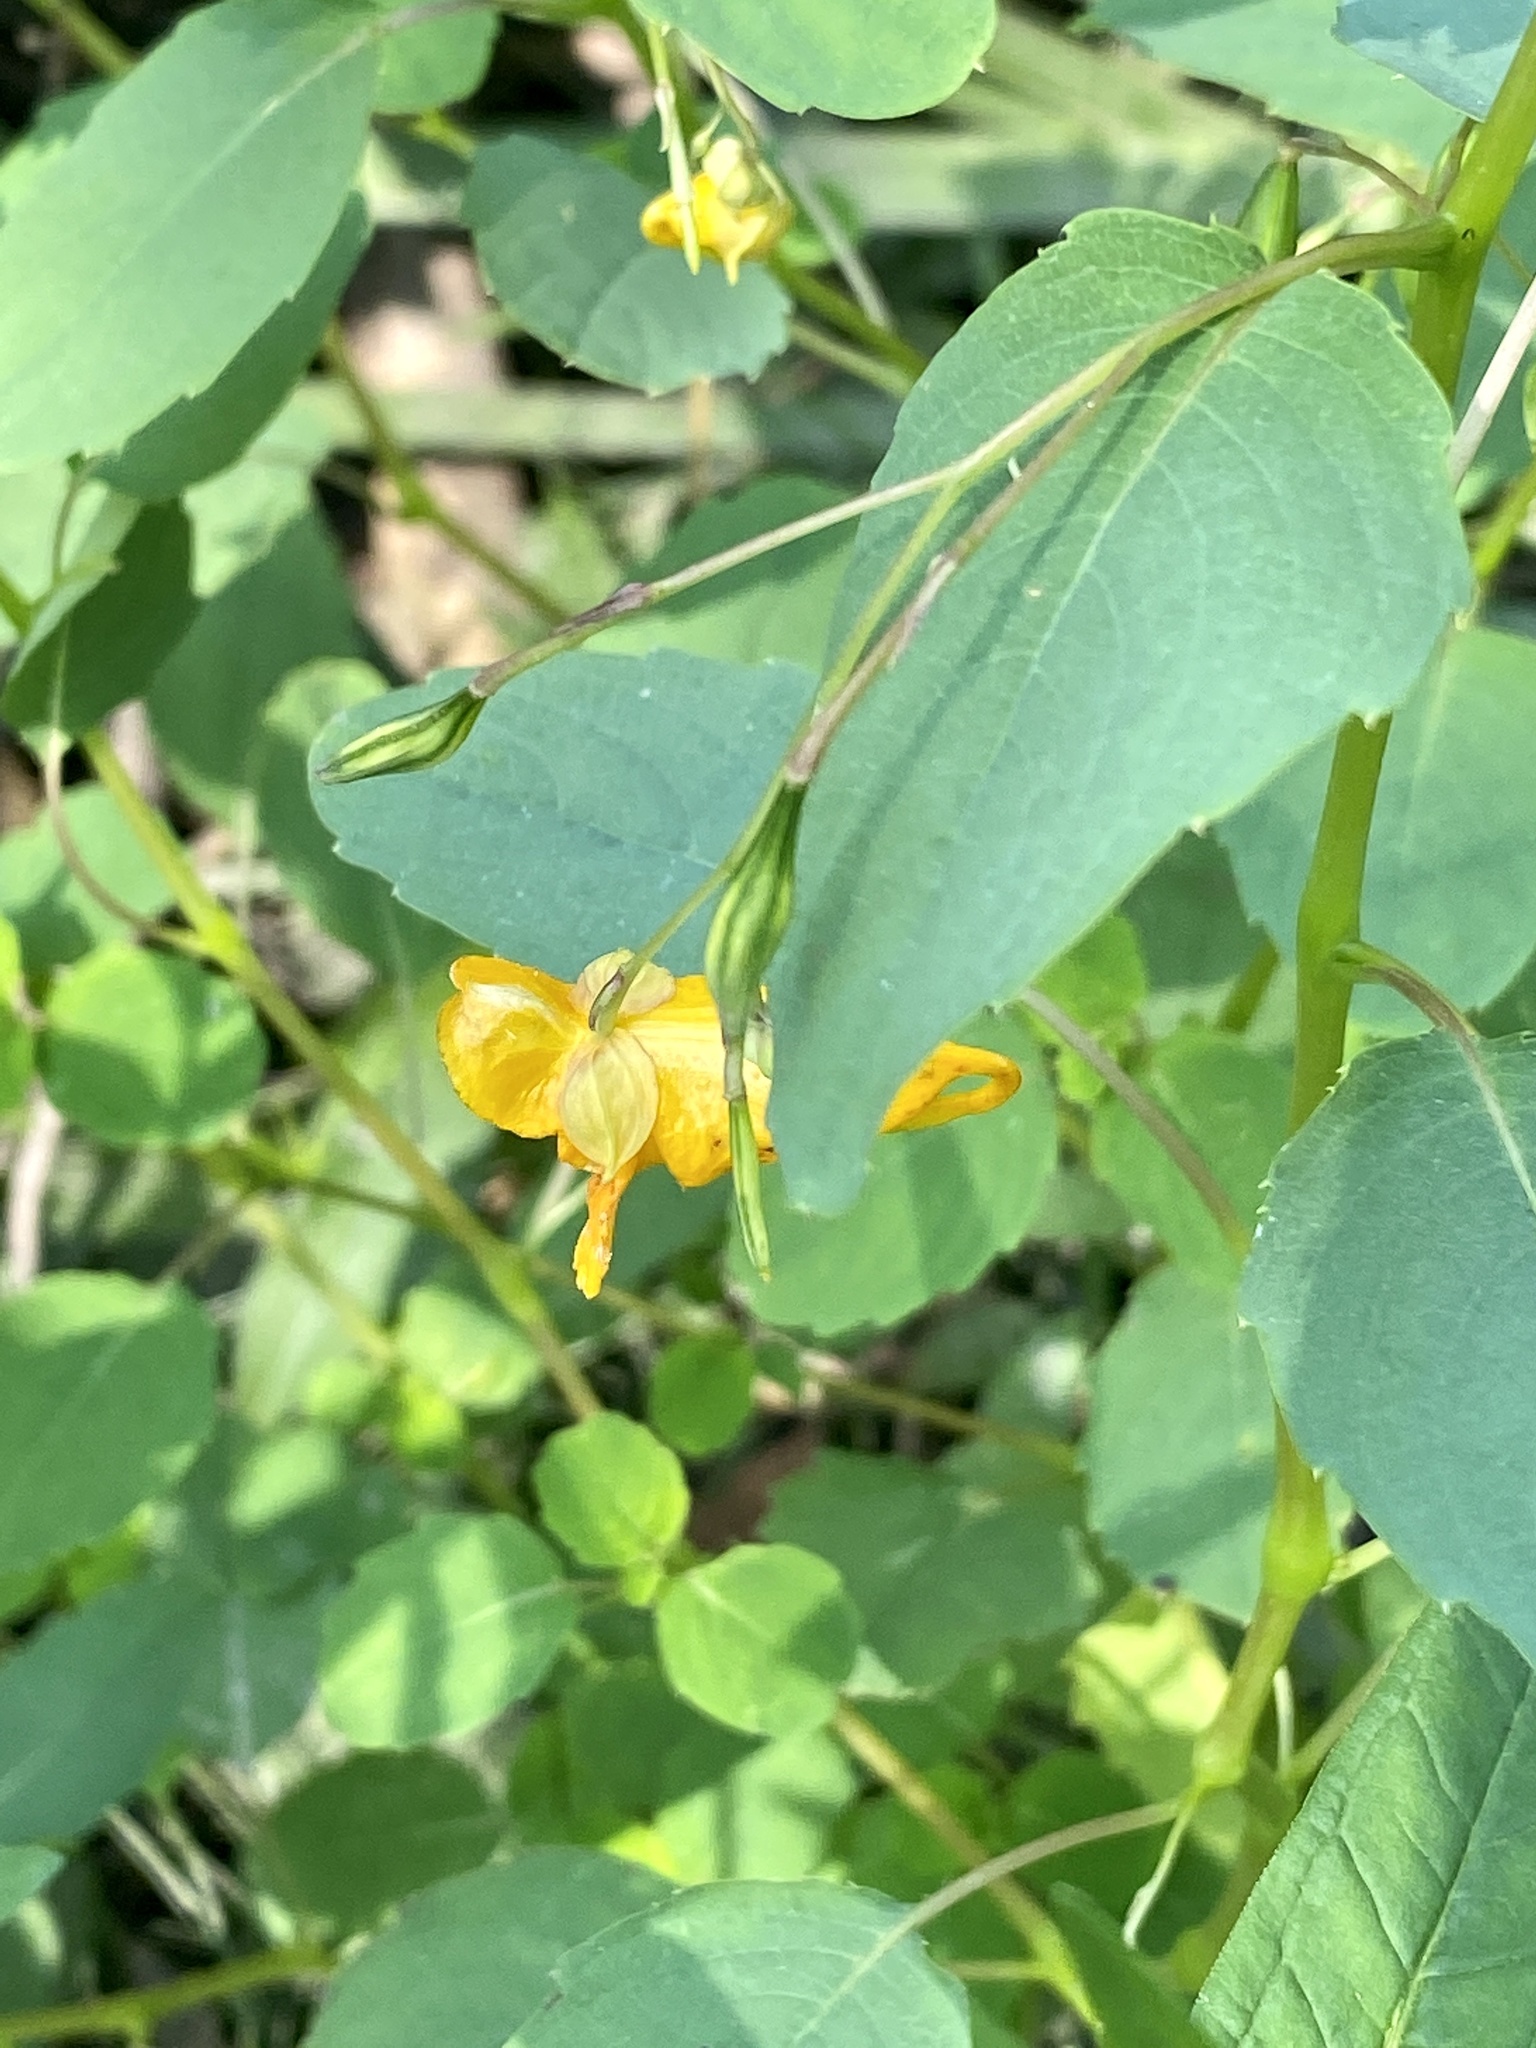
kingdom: Plantae
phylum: Tracheophyta
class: Magnoliopsida
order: Ericales
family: Balsaminaceae
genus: Impatiens
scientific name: Impatiens capensis
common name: Orange balsam
